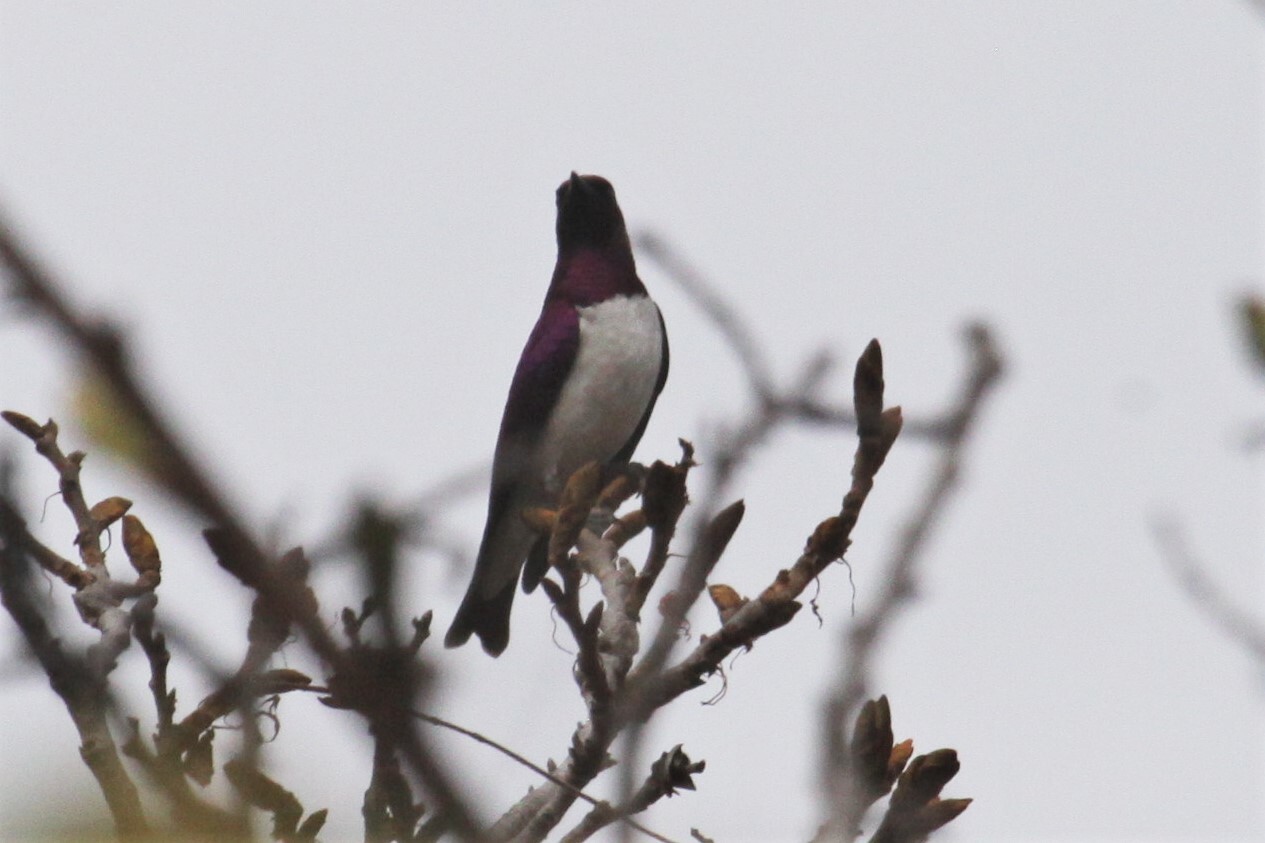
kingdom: Animalia
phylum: Chordata
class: Aves
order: Passeriformes
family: Sturnidae
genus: Cinnyricinclus
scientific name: Cinnyricinclus leucogaster
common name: Violet-backed starling
